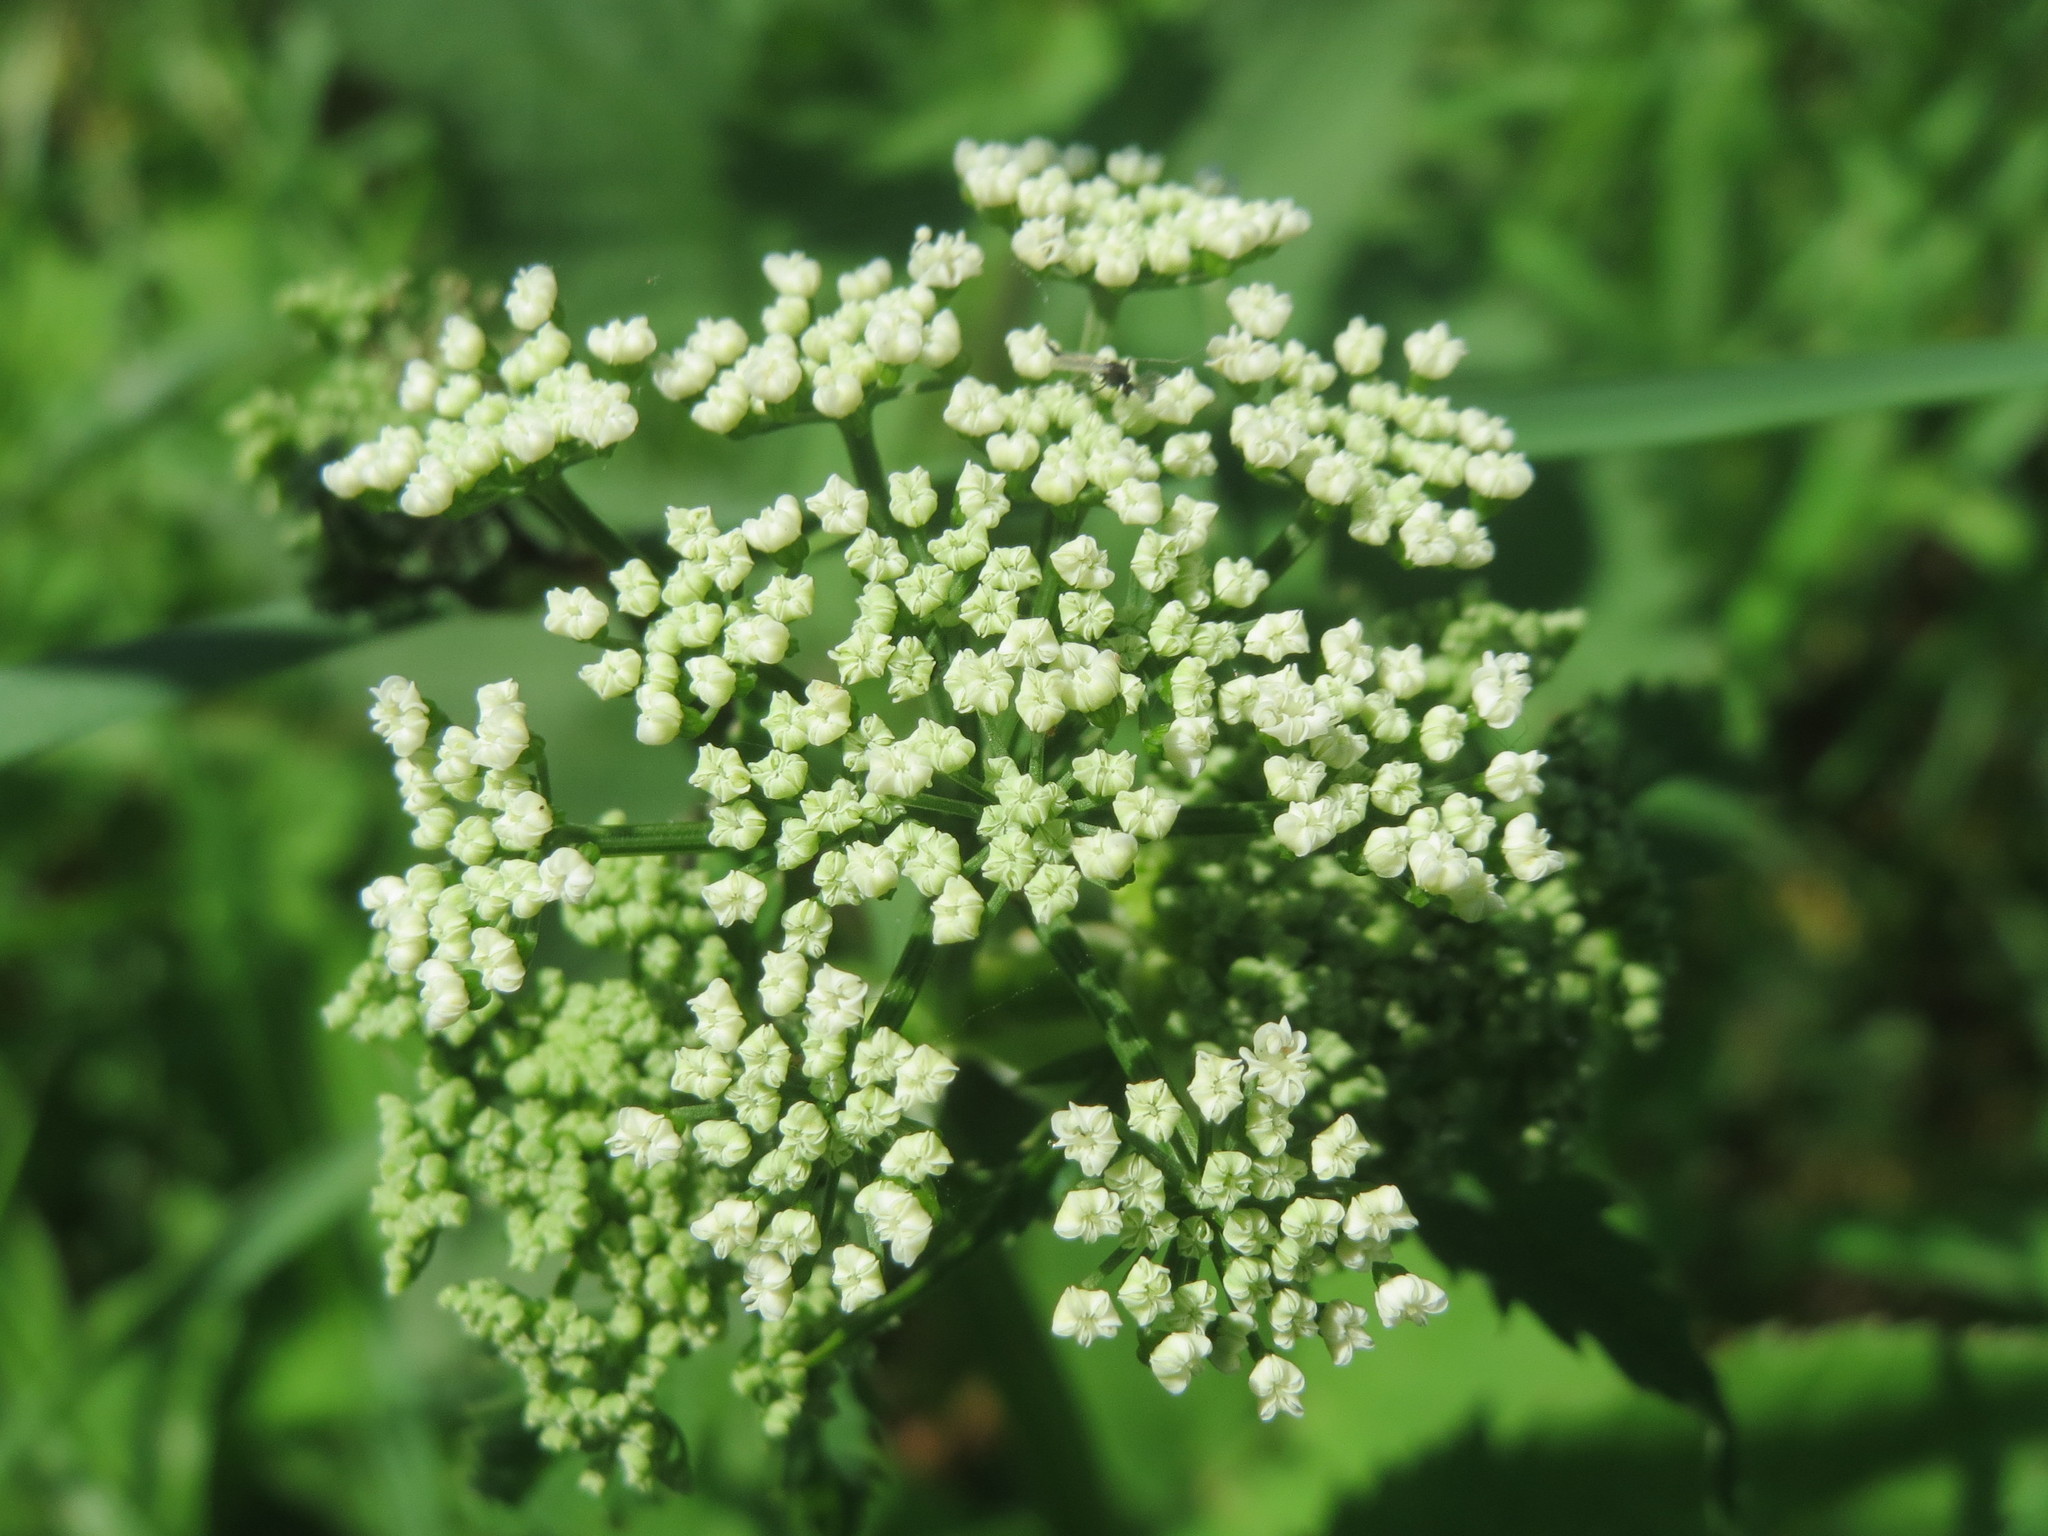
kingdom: Plantae
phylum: Tracheophyta
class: Magnoliopsida
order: Apiales
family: Apiaceae
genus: Aegopodium
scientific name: Aegopodium podagraria
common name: Ground-elder
